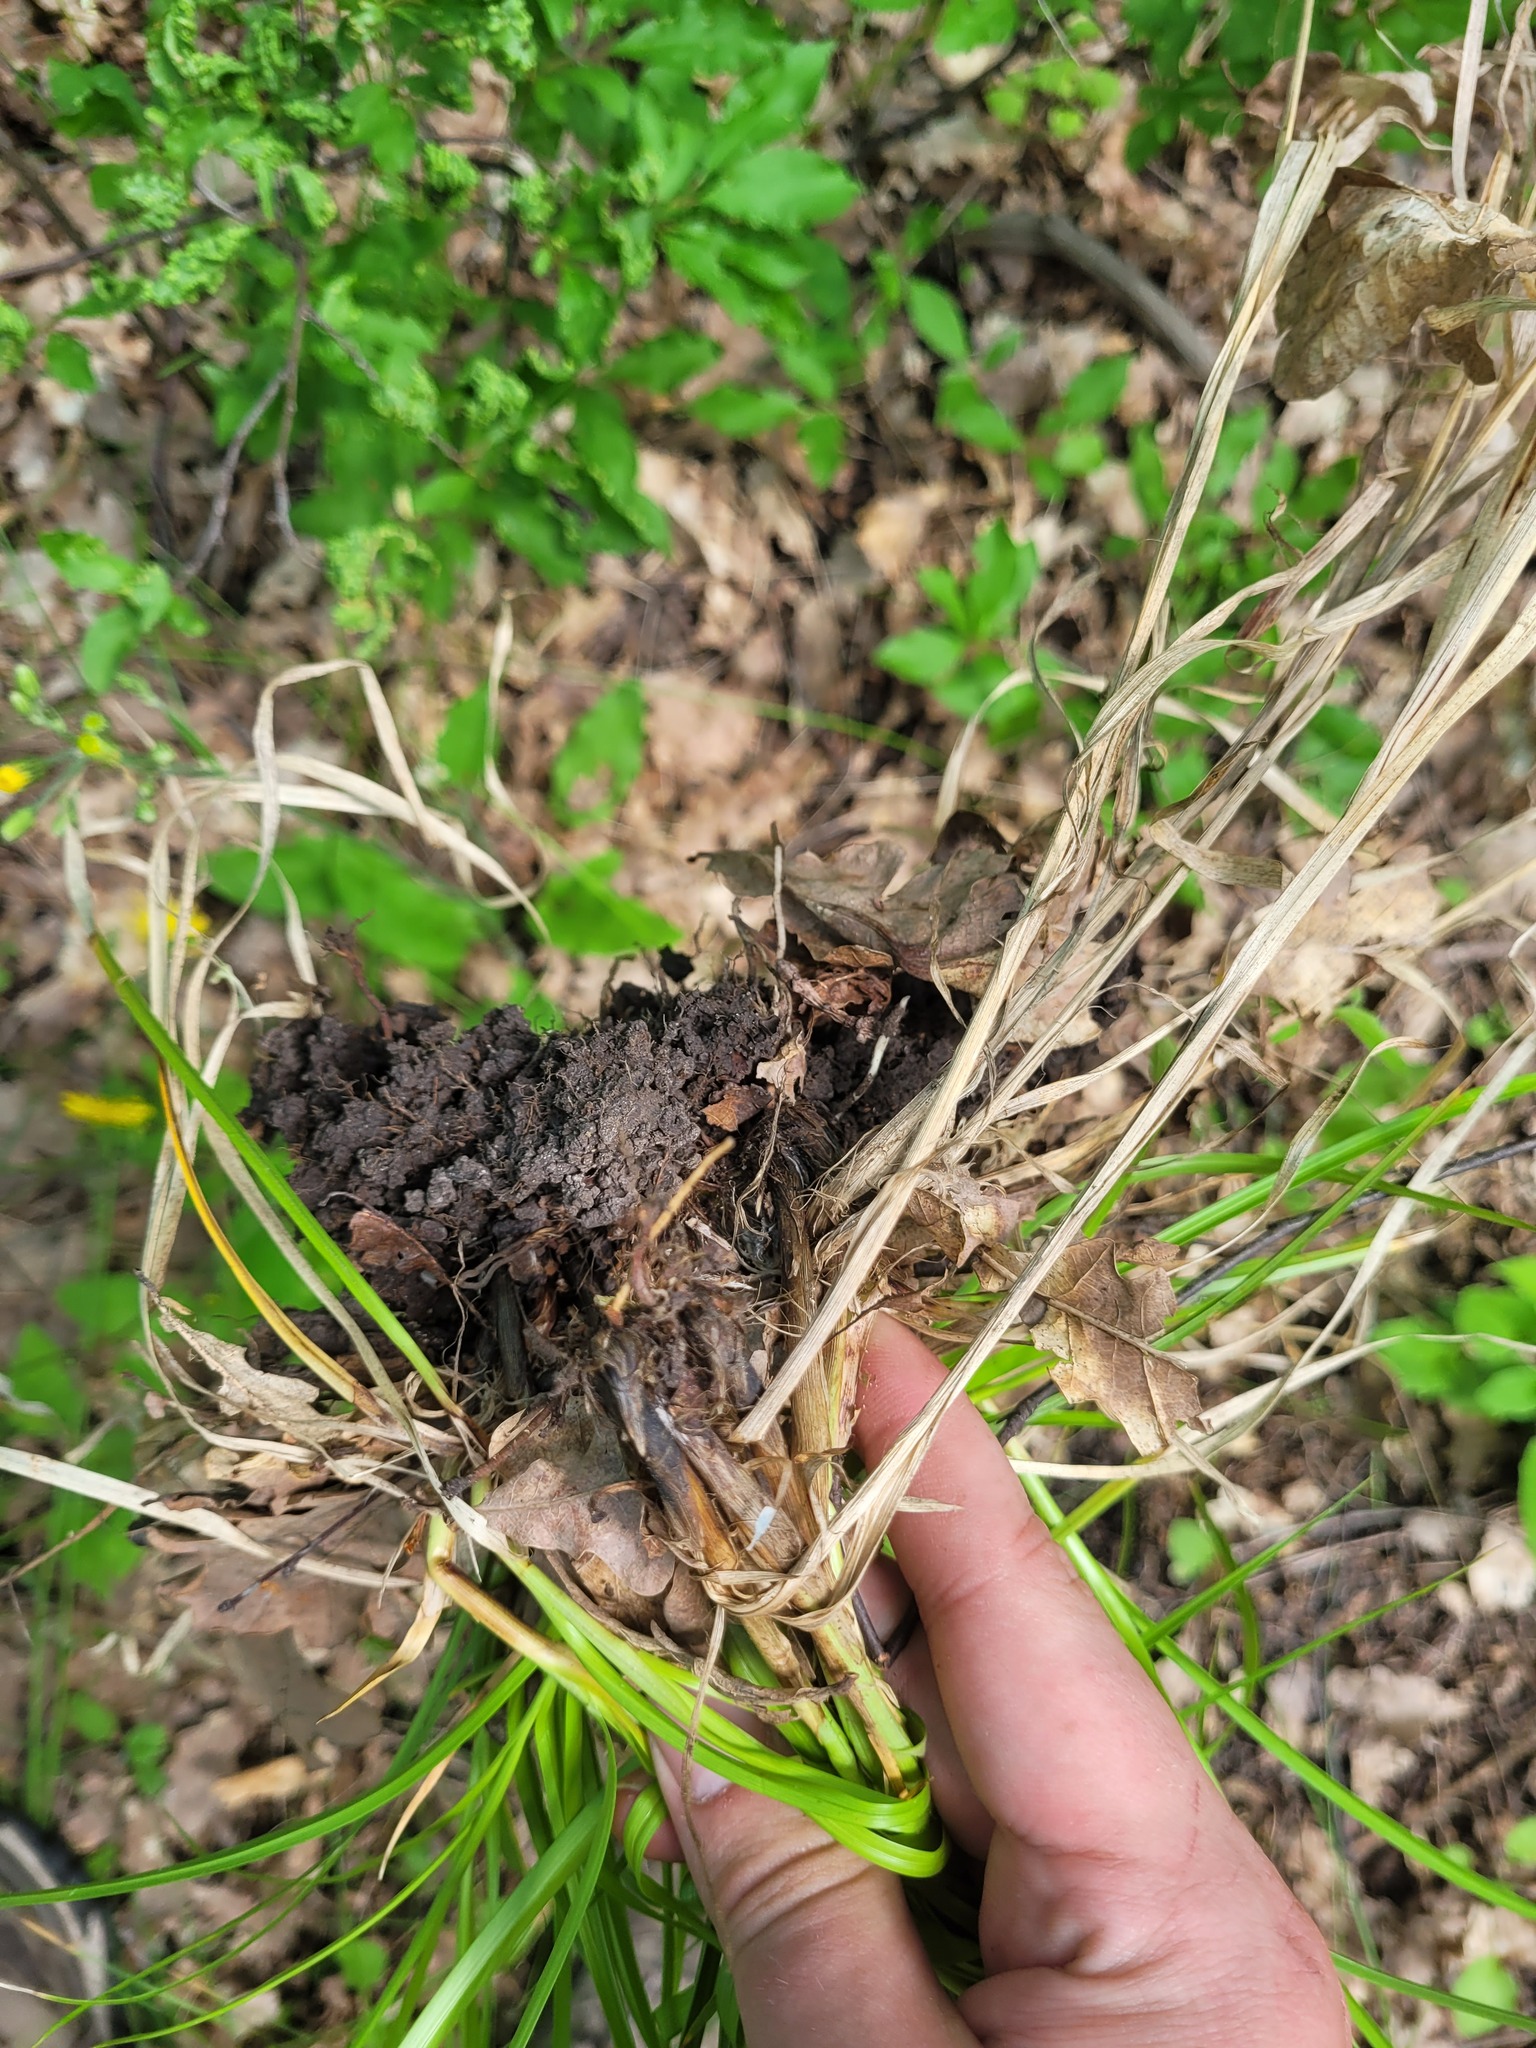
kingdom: Plantae
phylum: Tracheophyta
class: Liliopsida
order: Poales
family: Cyperaceae
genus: Carex
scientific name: Carex muricata
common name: Rough sedge
